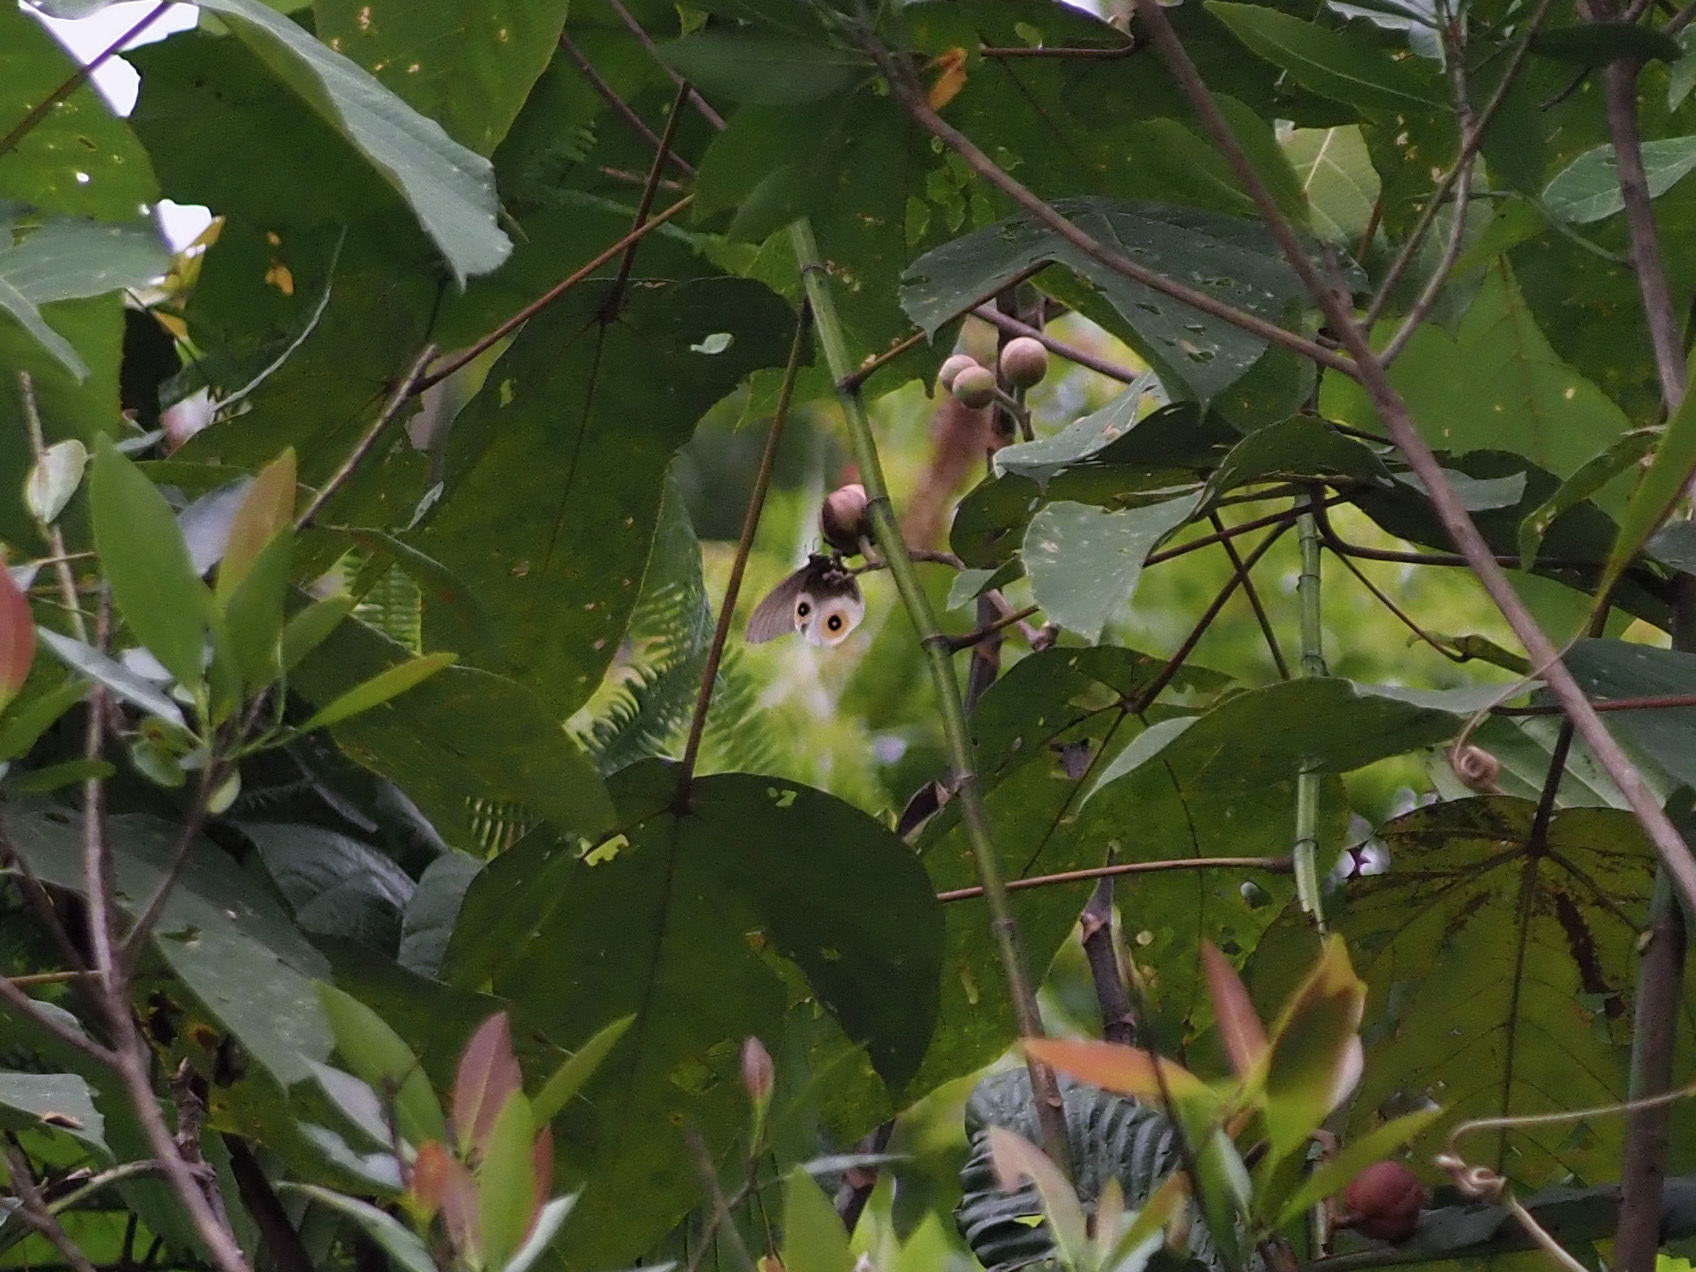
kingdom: Animalia
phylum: Arthropoda
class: Insecta
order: Lepidoptera
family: Nymphalidae
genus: Taenaris
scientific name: Taenaris horsfieldii
